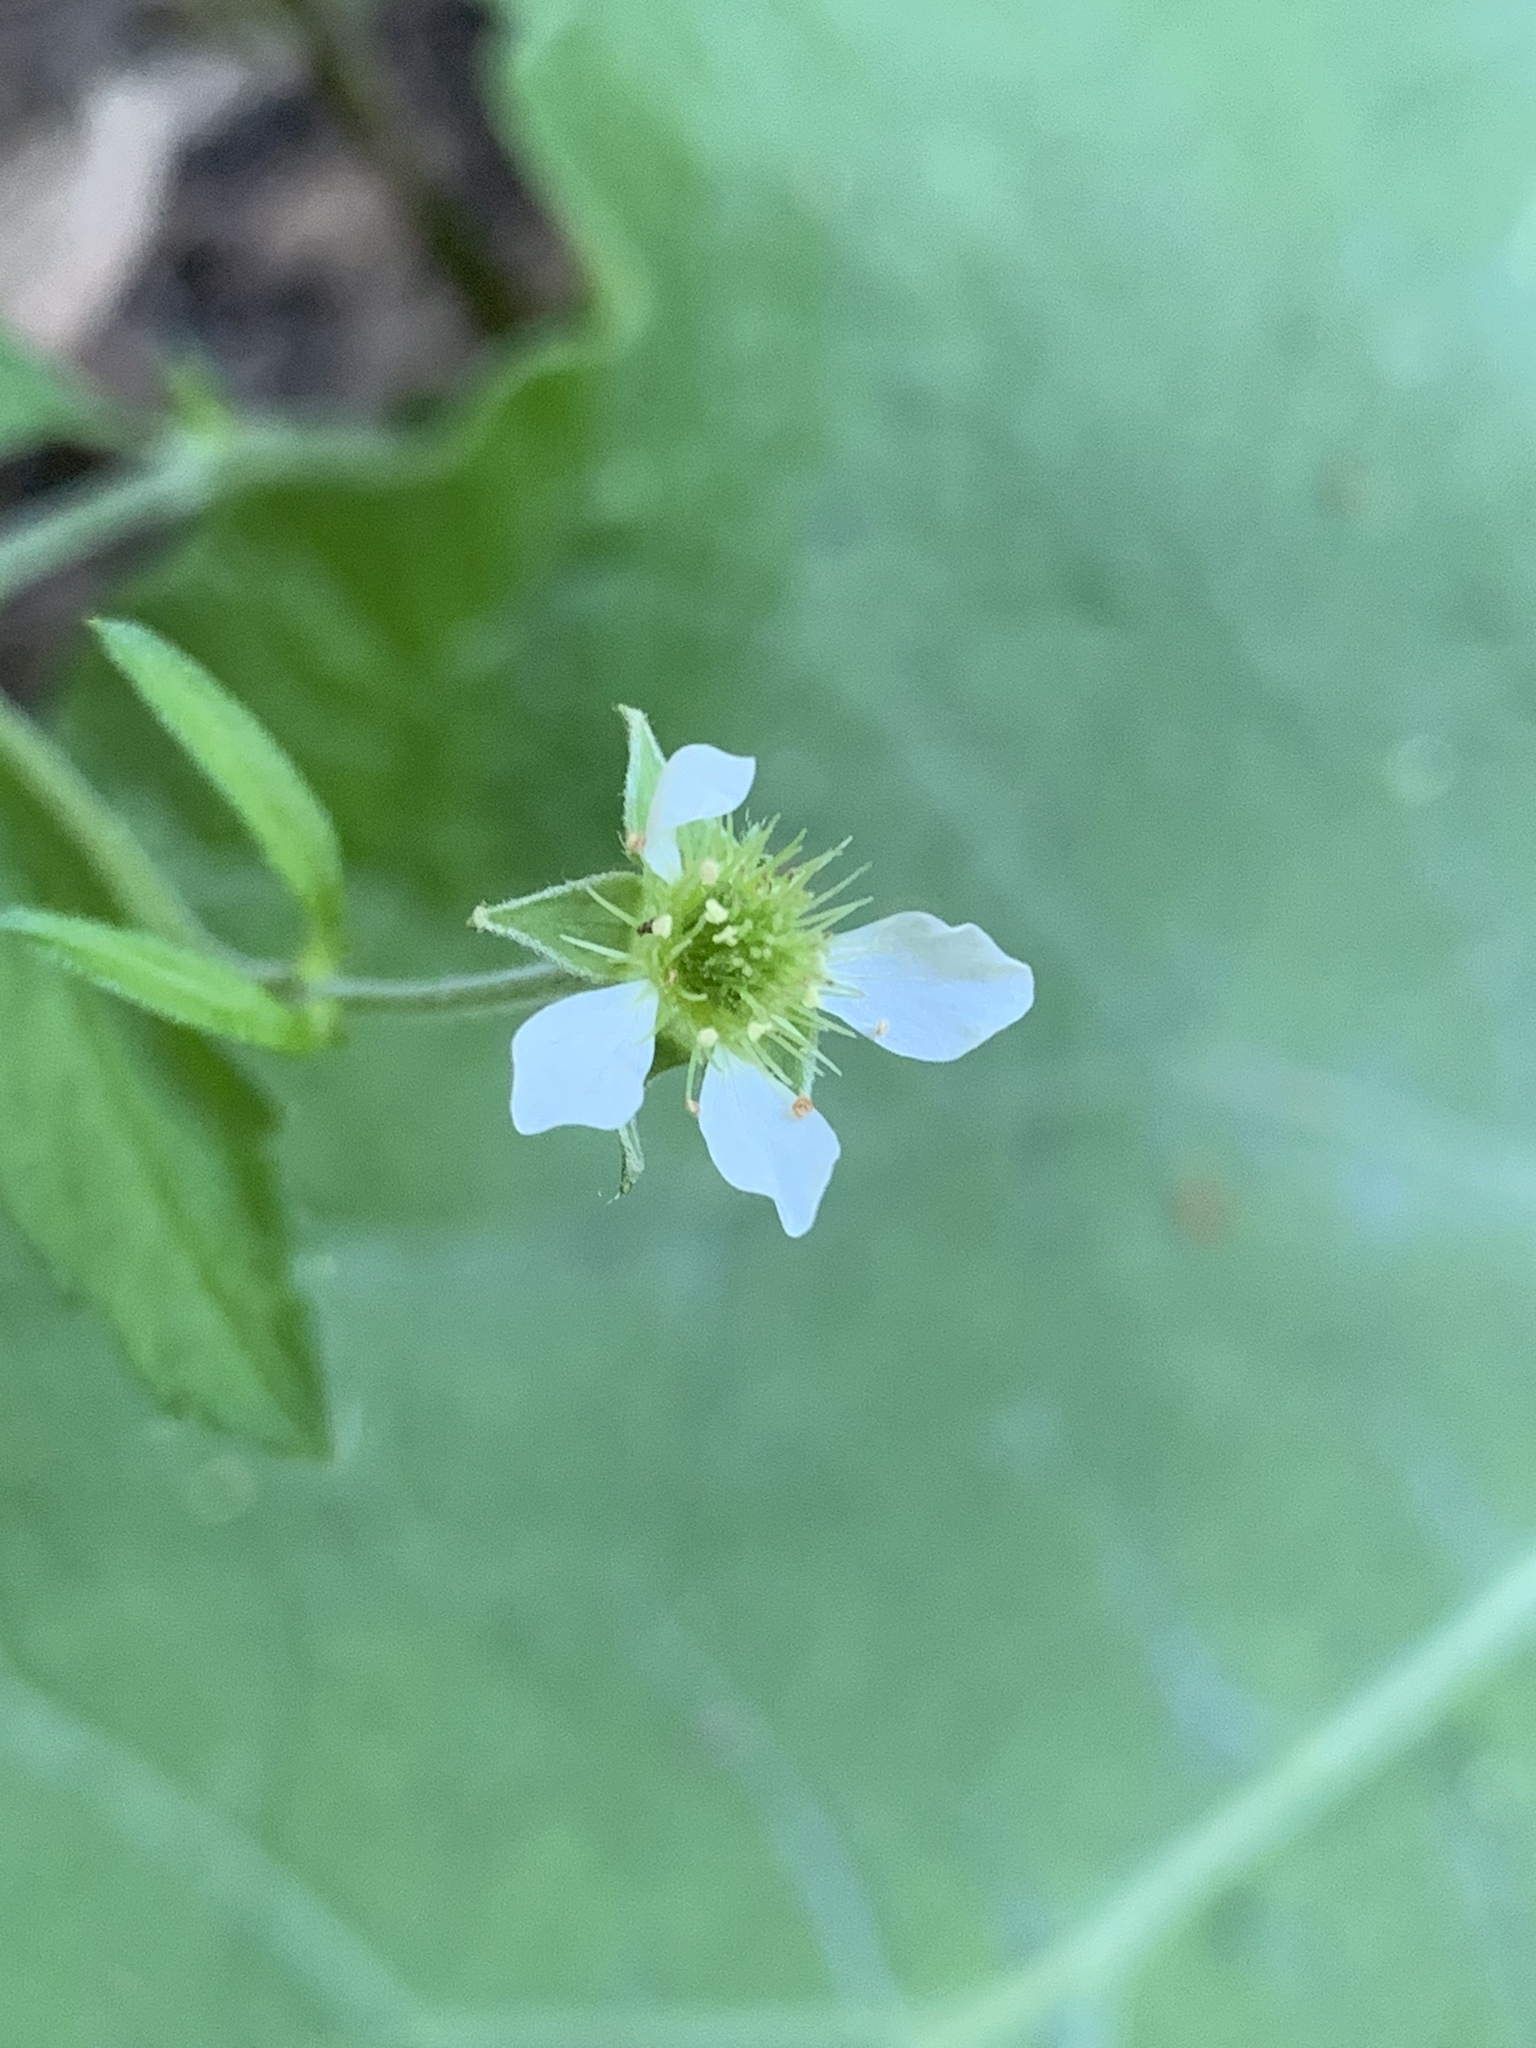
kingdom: Plantae
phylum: Tracheophyta
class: Magnoliopsida
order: Rosales
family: Rosaceae
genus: Geum
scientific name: Geum canadense
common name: White avens
